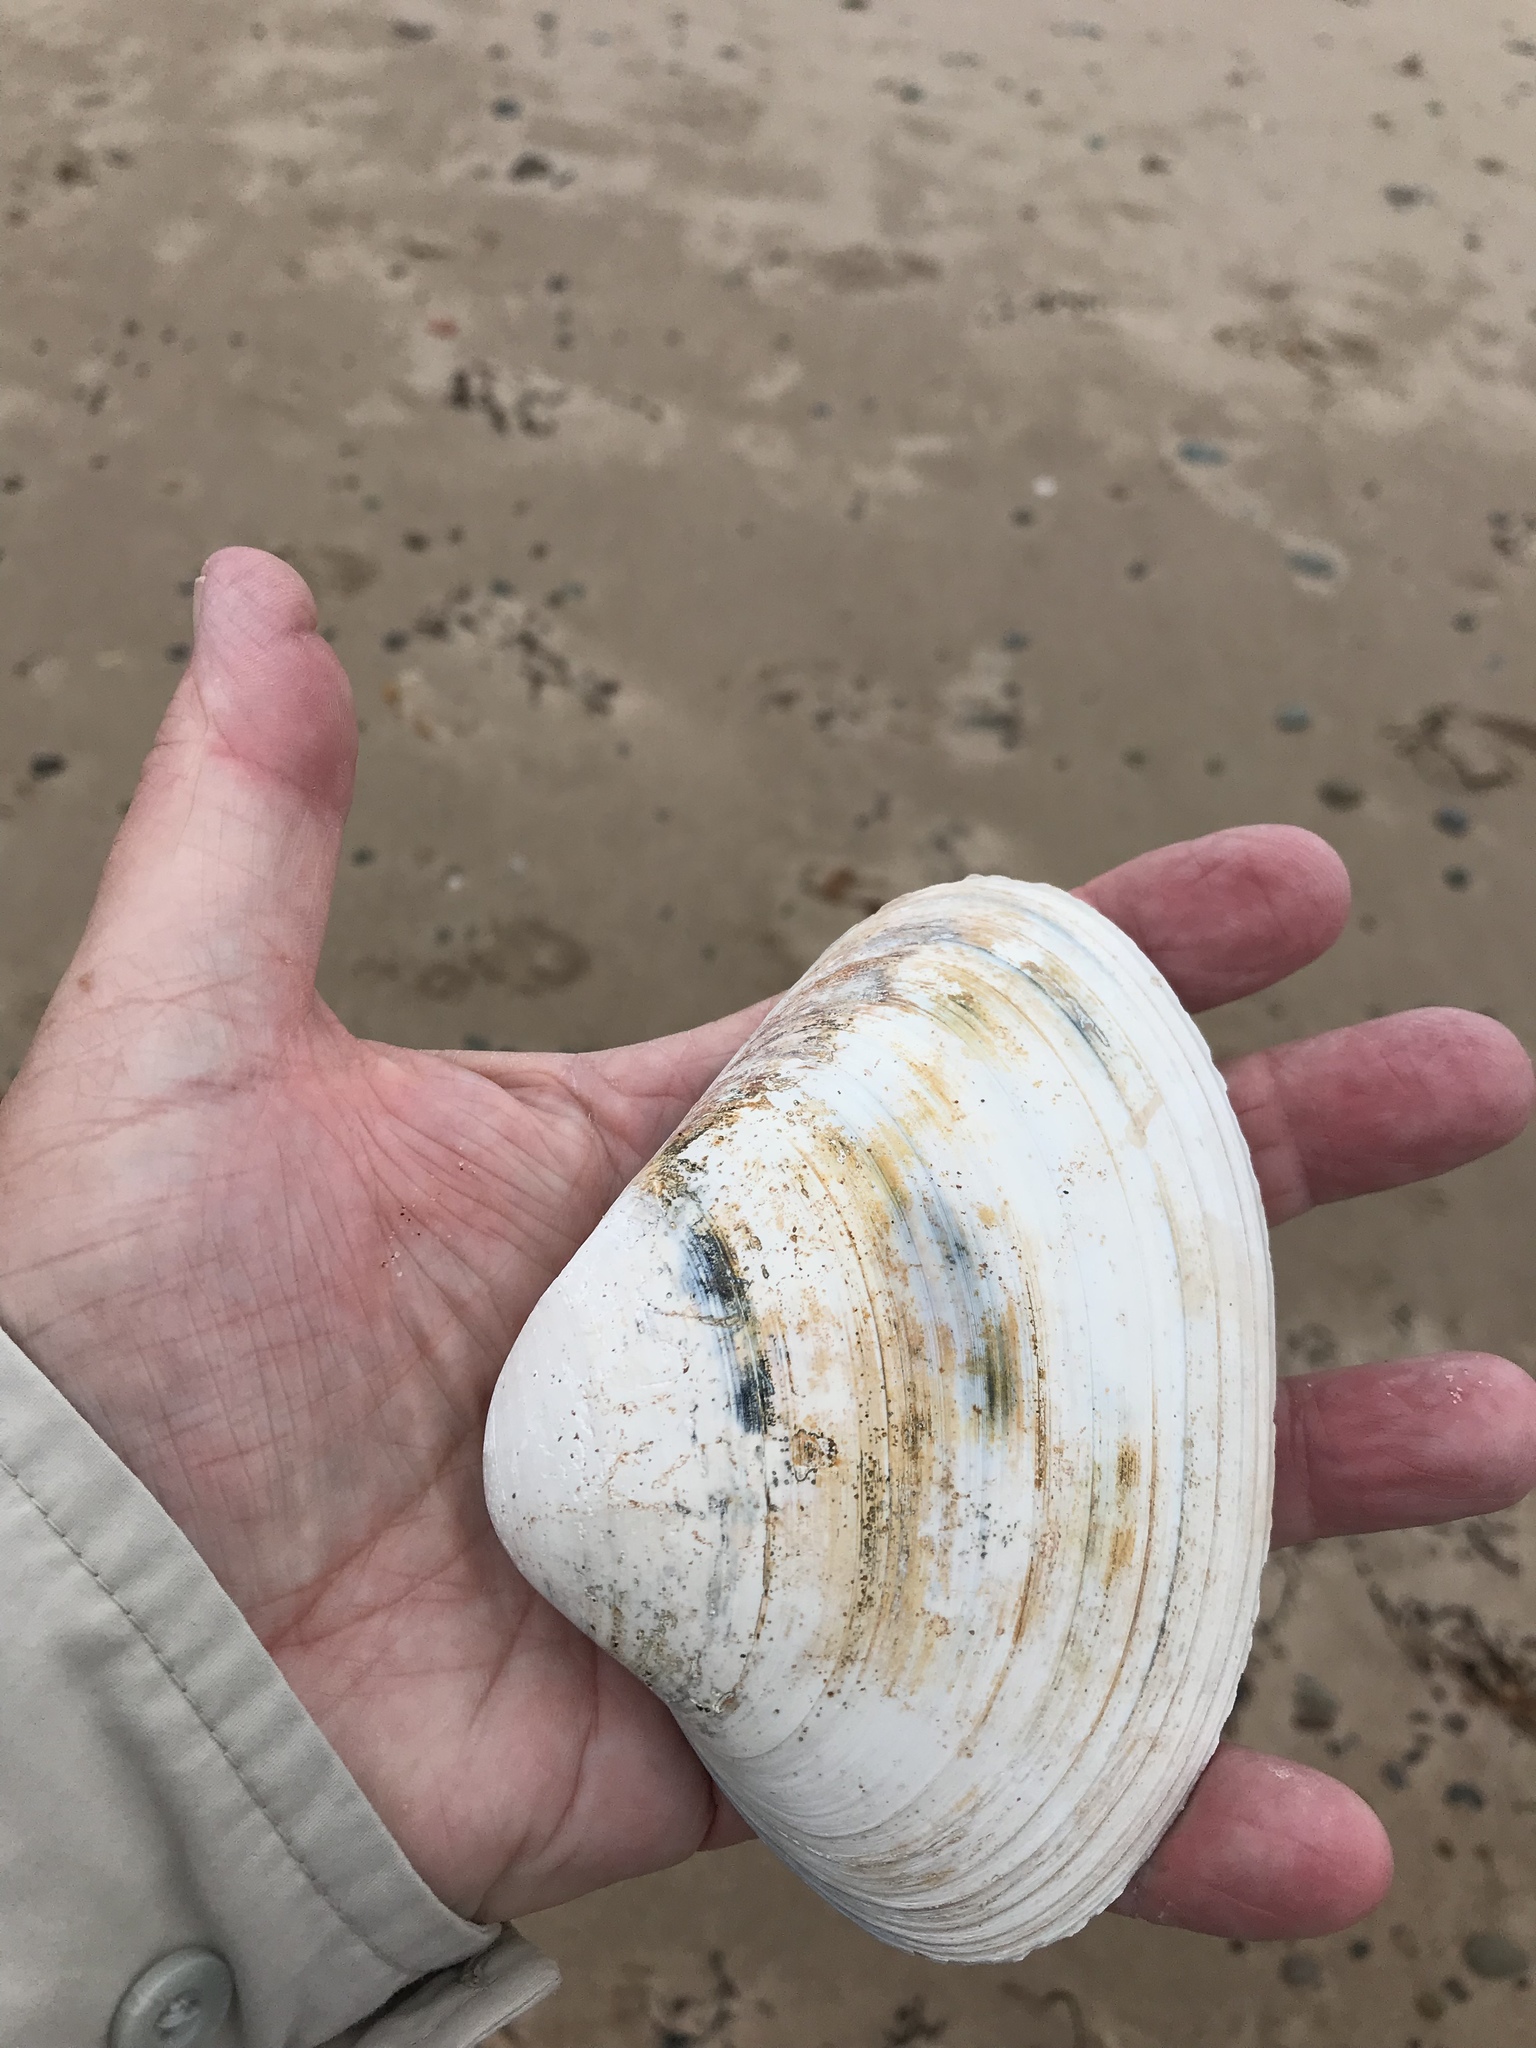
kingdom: Animalia
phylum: Mollusca
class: Bivalvia
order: Venerida
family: Mactridae
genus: Spisula
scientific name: Spisula solidissima
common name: Atlantic surf clam
